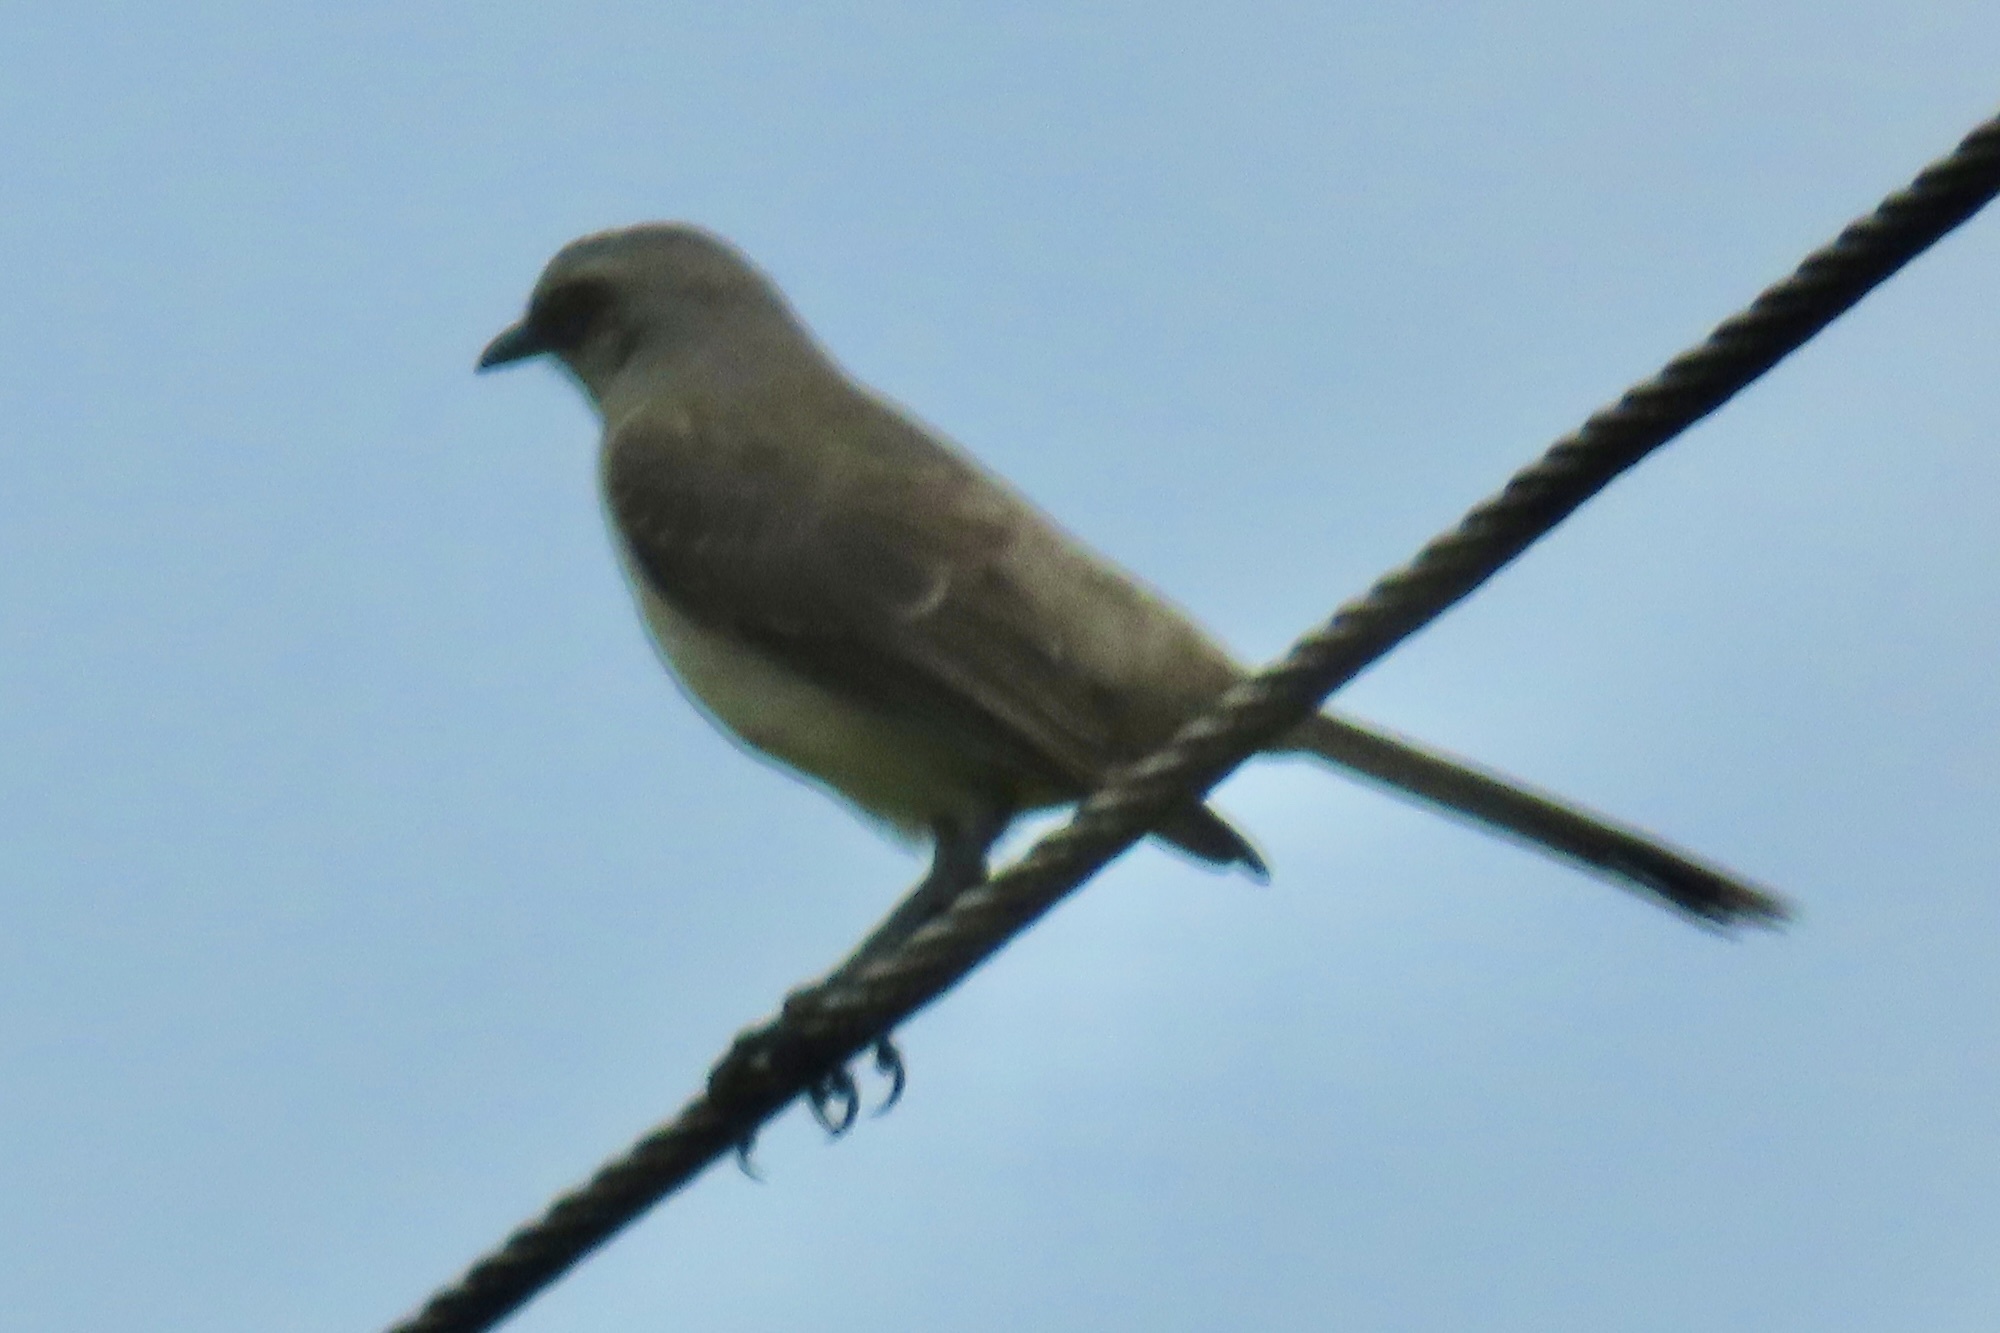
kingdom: Animalia
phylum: Chordata
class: Aves
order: Passeriformes
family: Mimidae
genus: Mimus
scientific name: Mimus gilvus
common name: Tropical mockingbird
